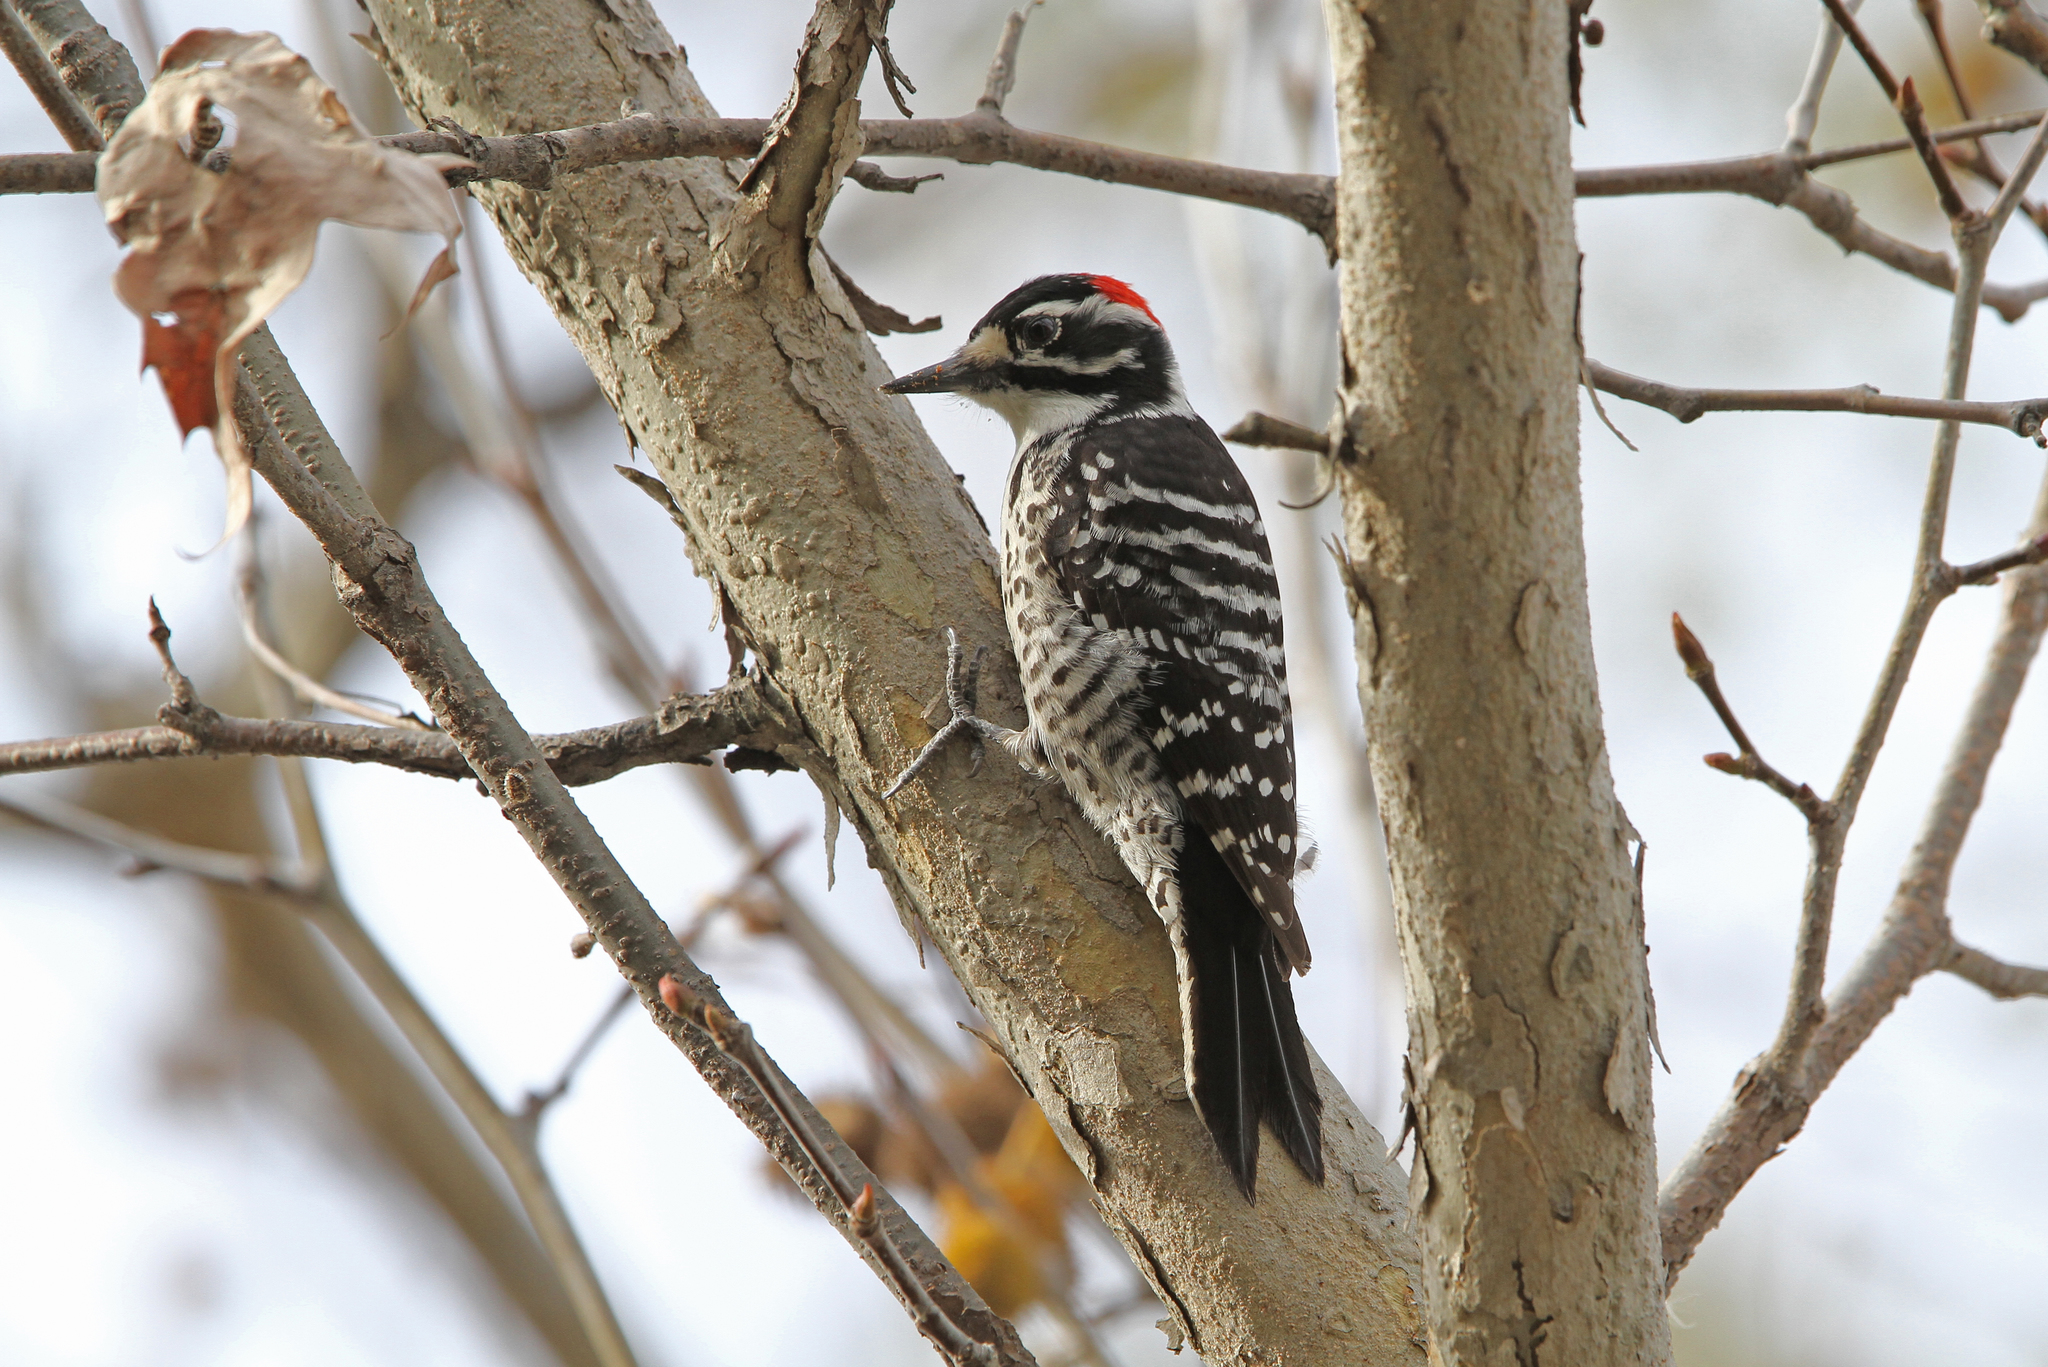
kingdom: Animalia
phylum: Chordata
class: Aves
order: Piciformes
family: Picidae
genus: Dryobates
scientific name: Dryobates nuttallii
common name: Nuttall's woodpecker
